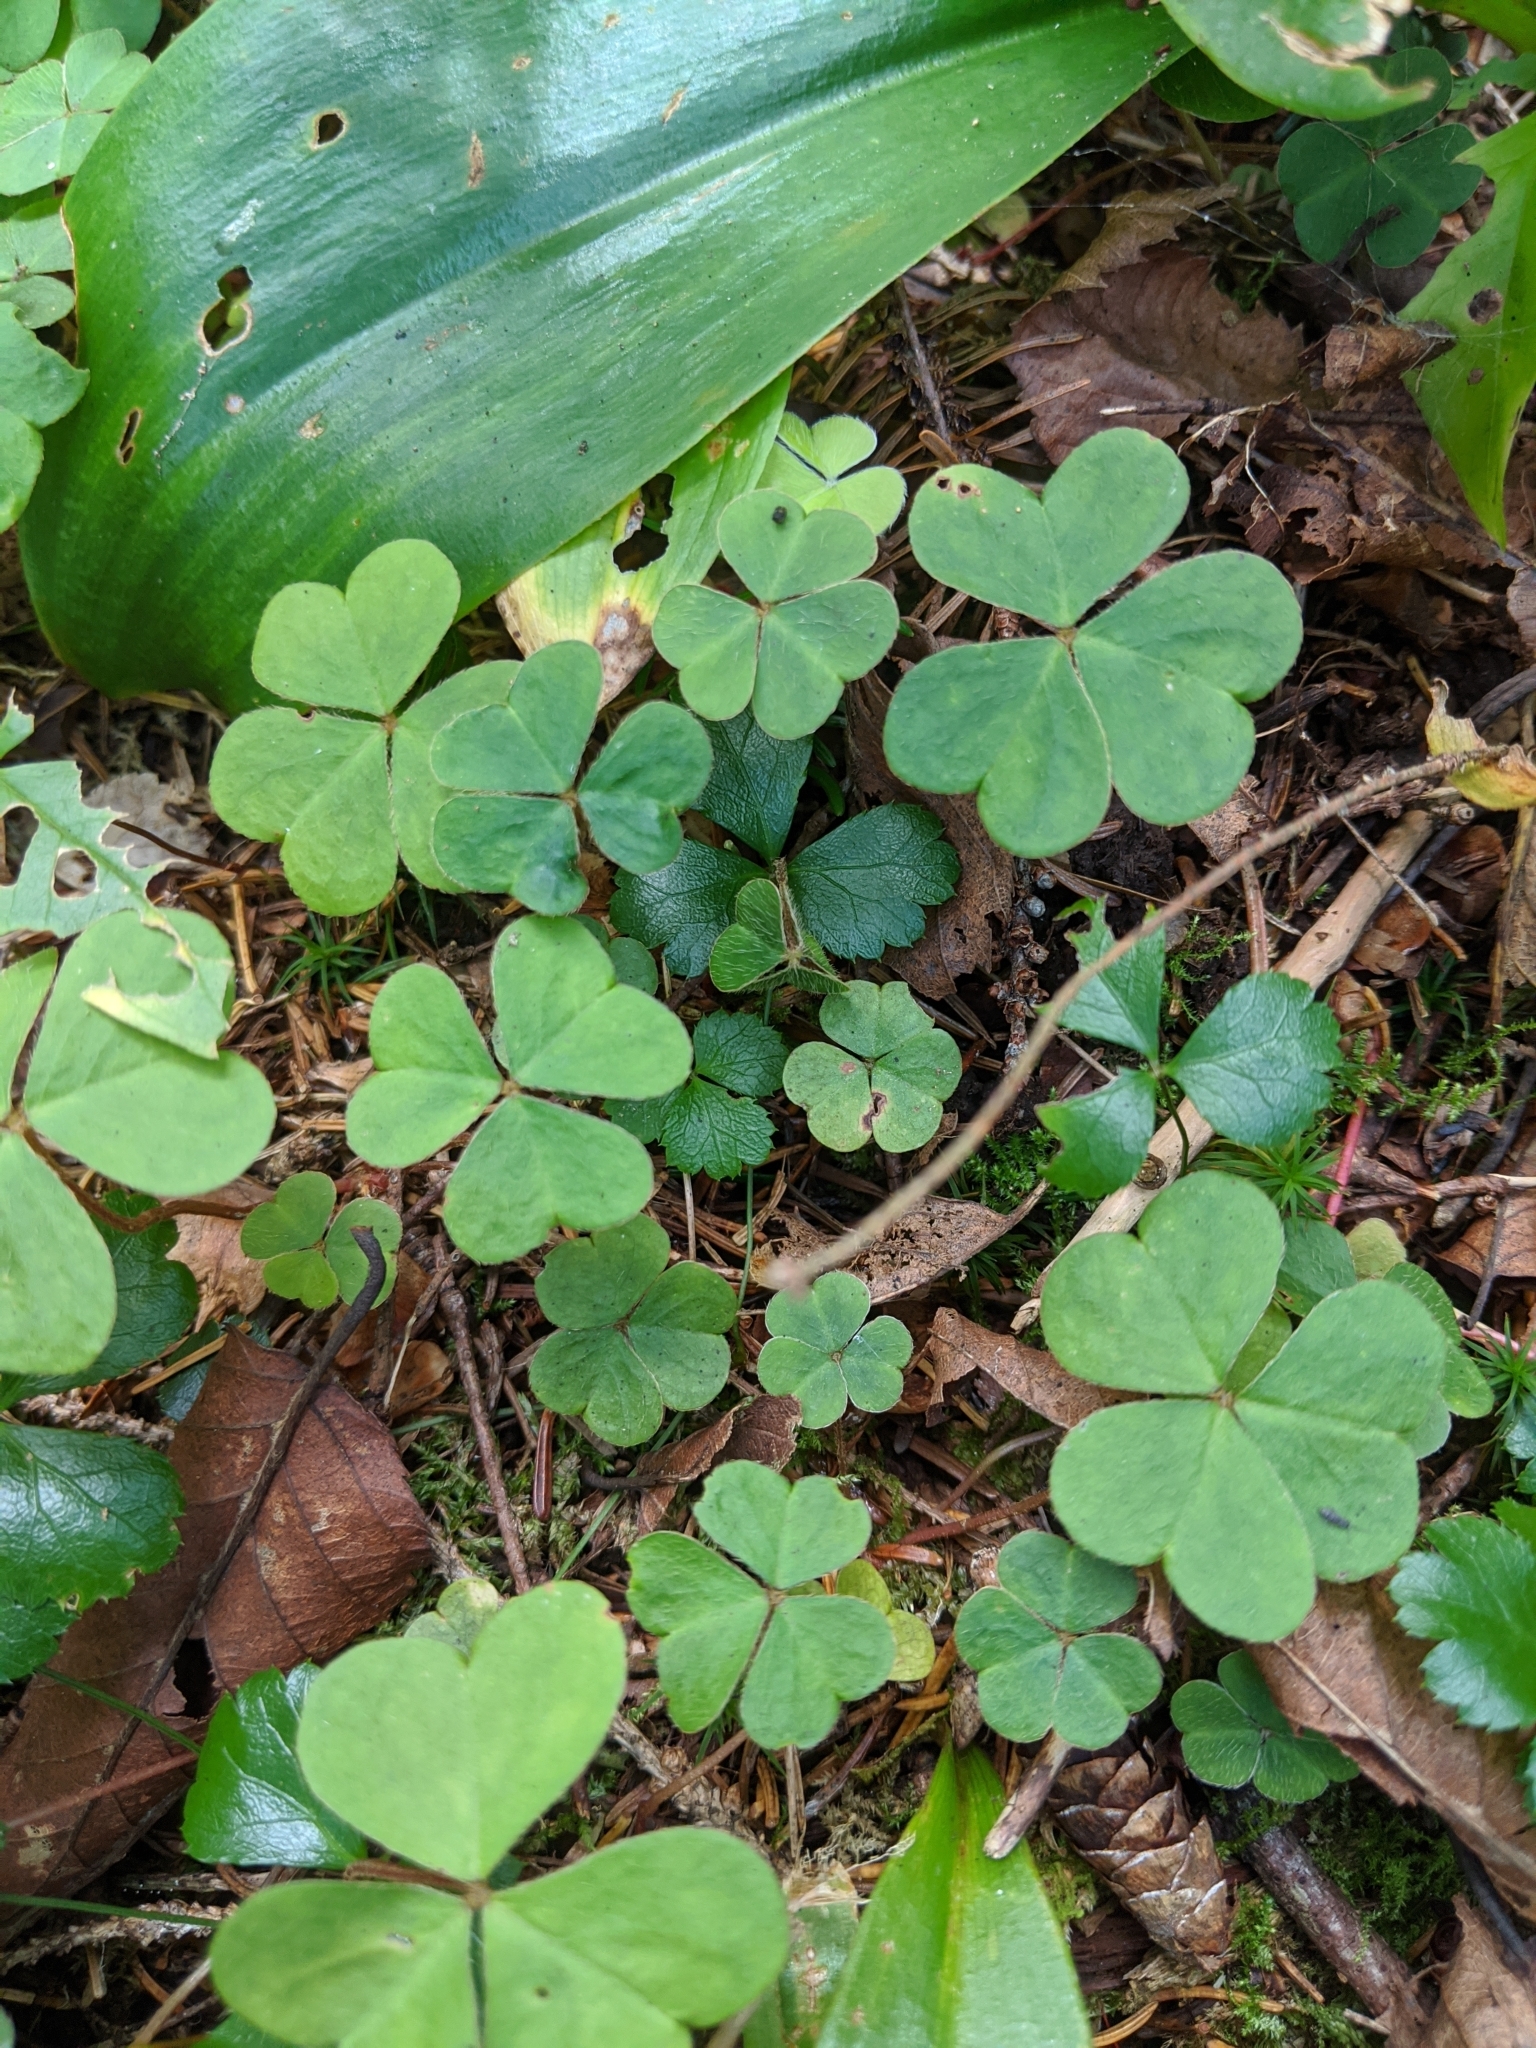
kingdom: Plantae
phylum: Tracheophyta
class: Magnoliopsida
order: Oxalidales
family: Oxalidaceae
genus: Oxalis
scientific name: Oxalis montana
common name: American wood-sorrel
